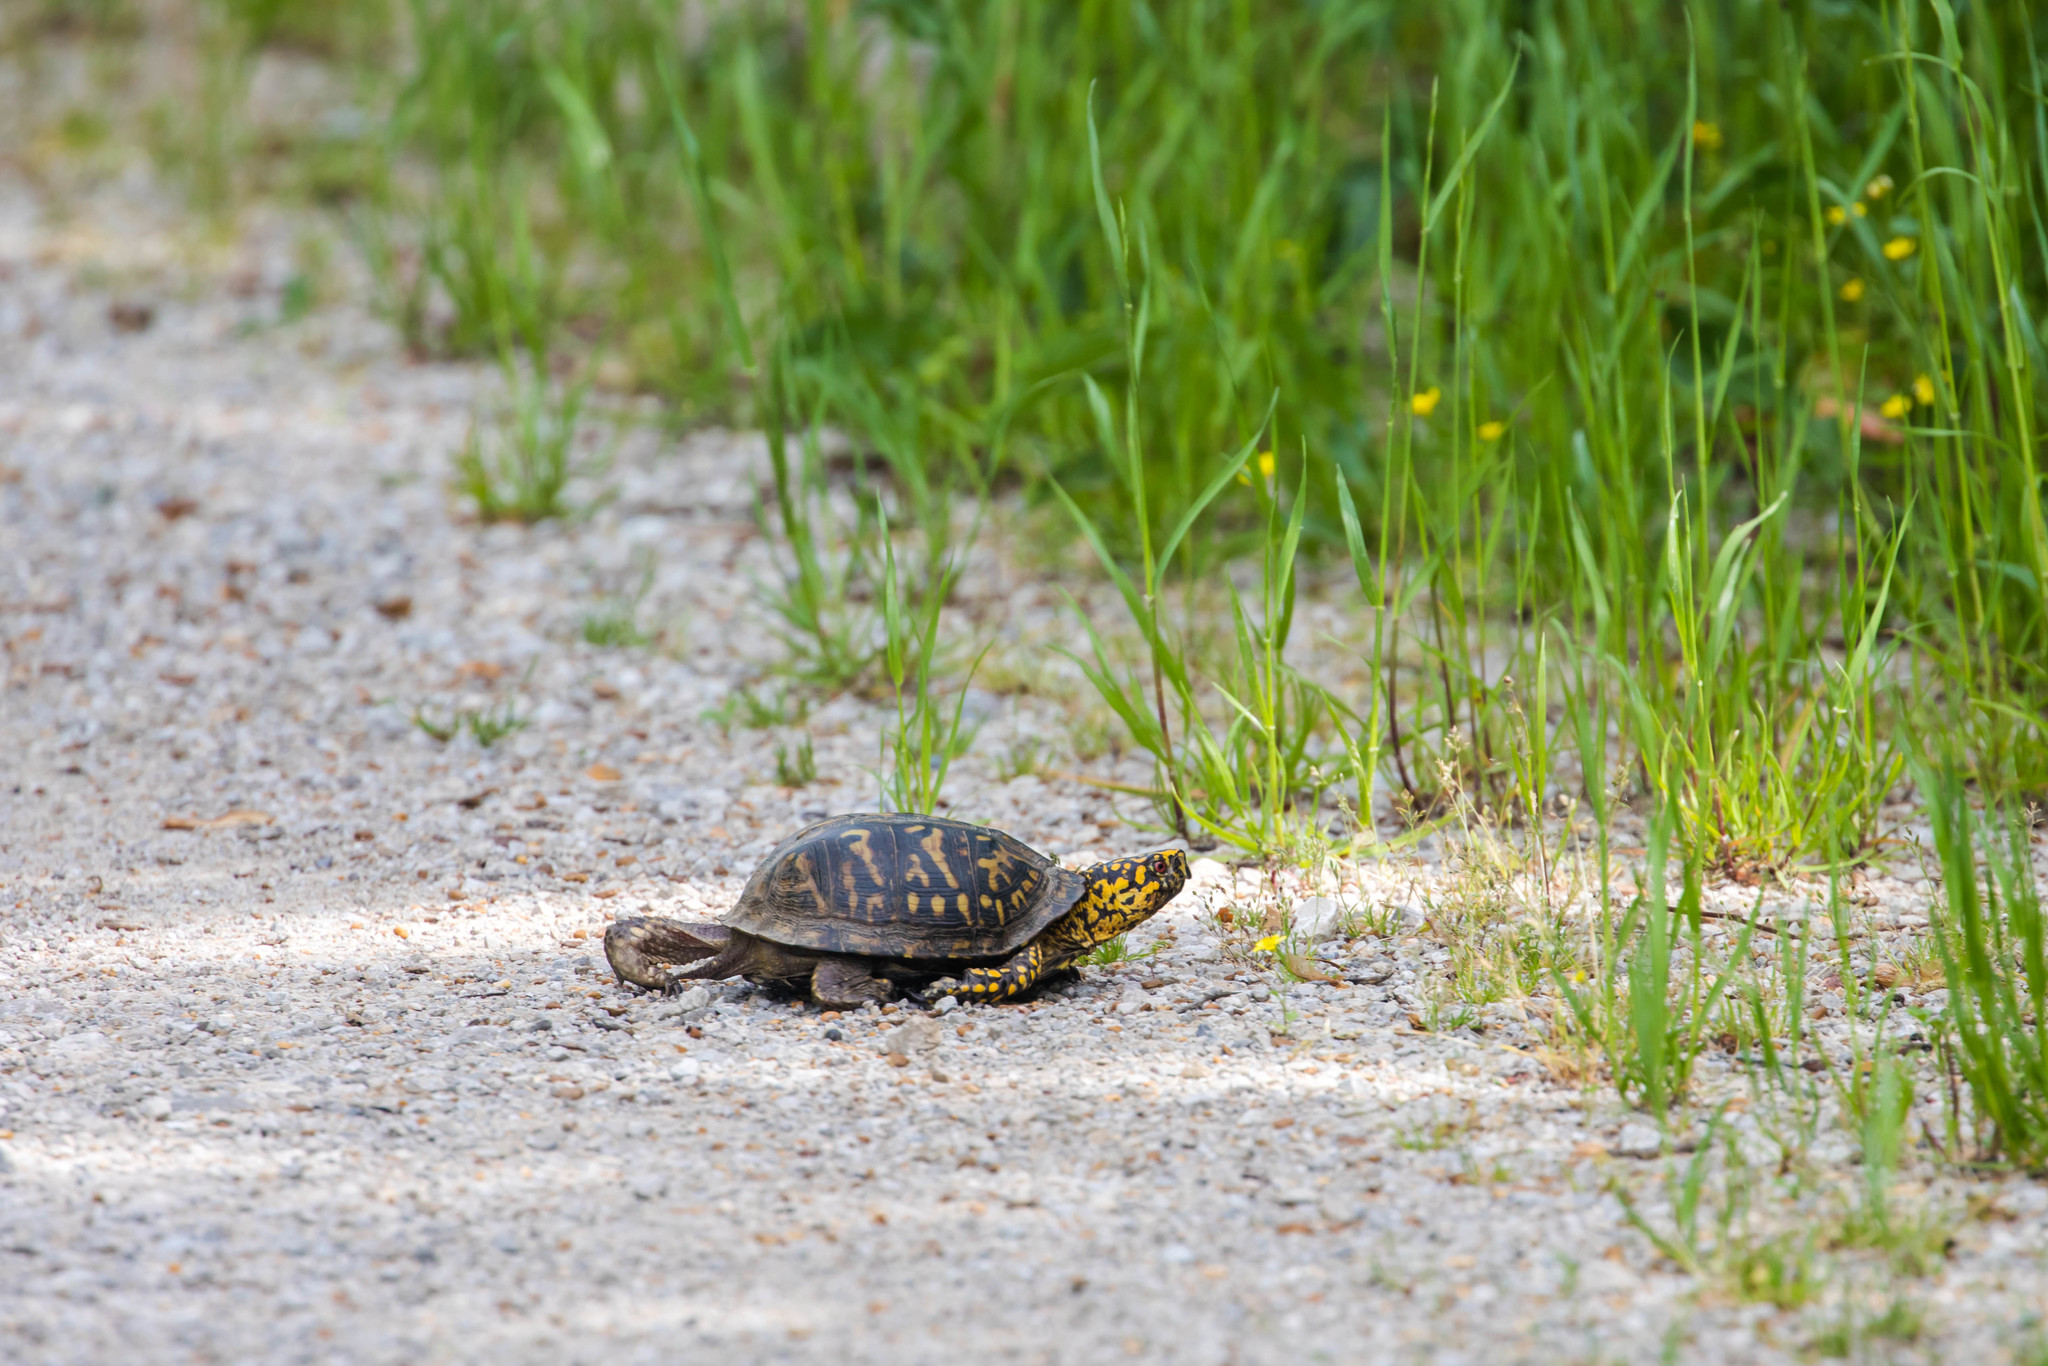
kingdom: Animalia
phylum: Chordata
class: Testudines
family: Emydidae
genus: Terrapene
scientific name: Terrapene carolina
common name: Common box turtle
